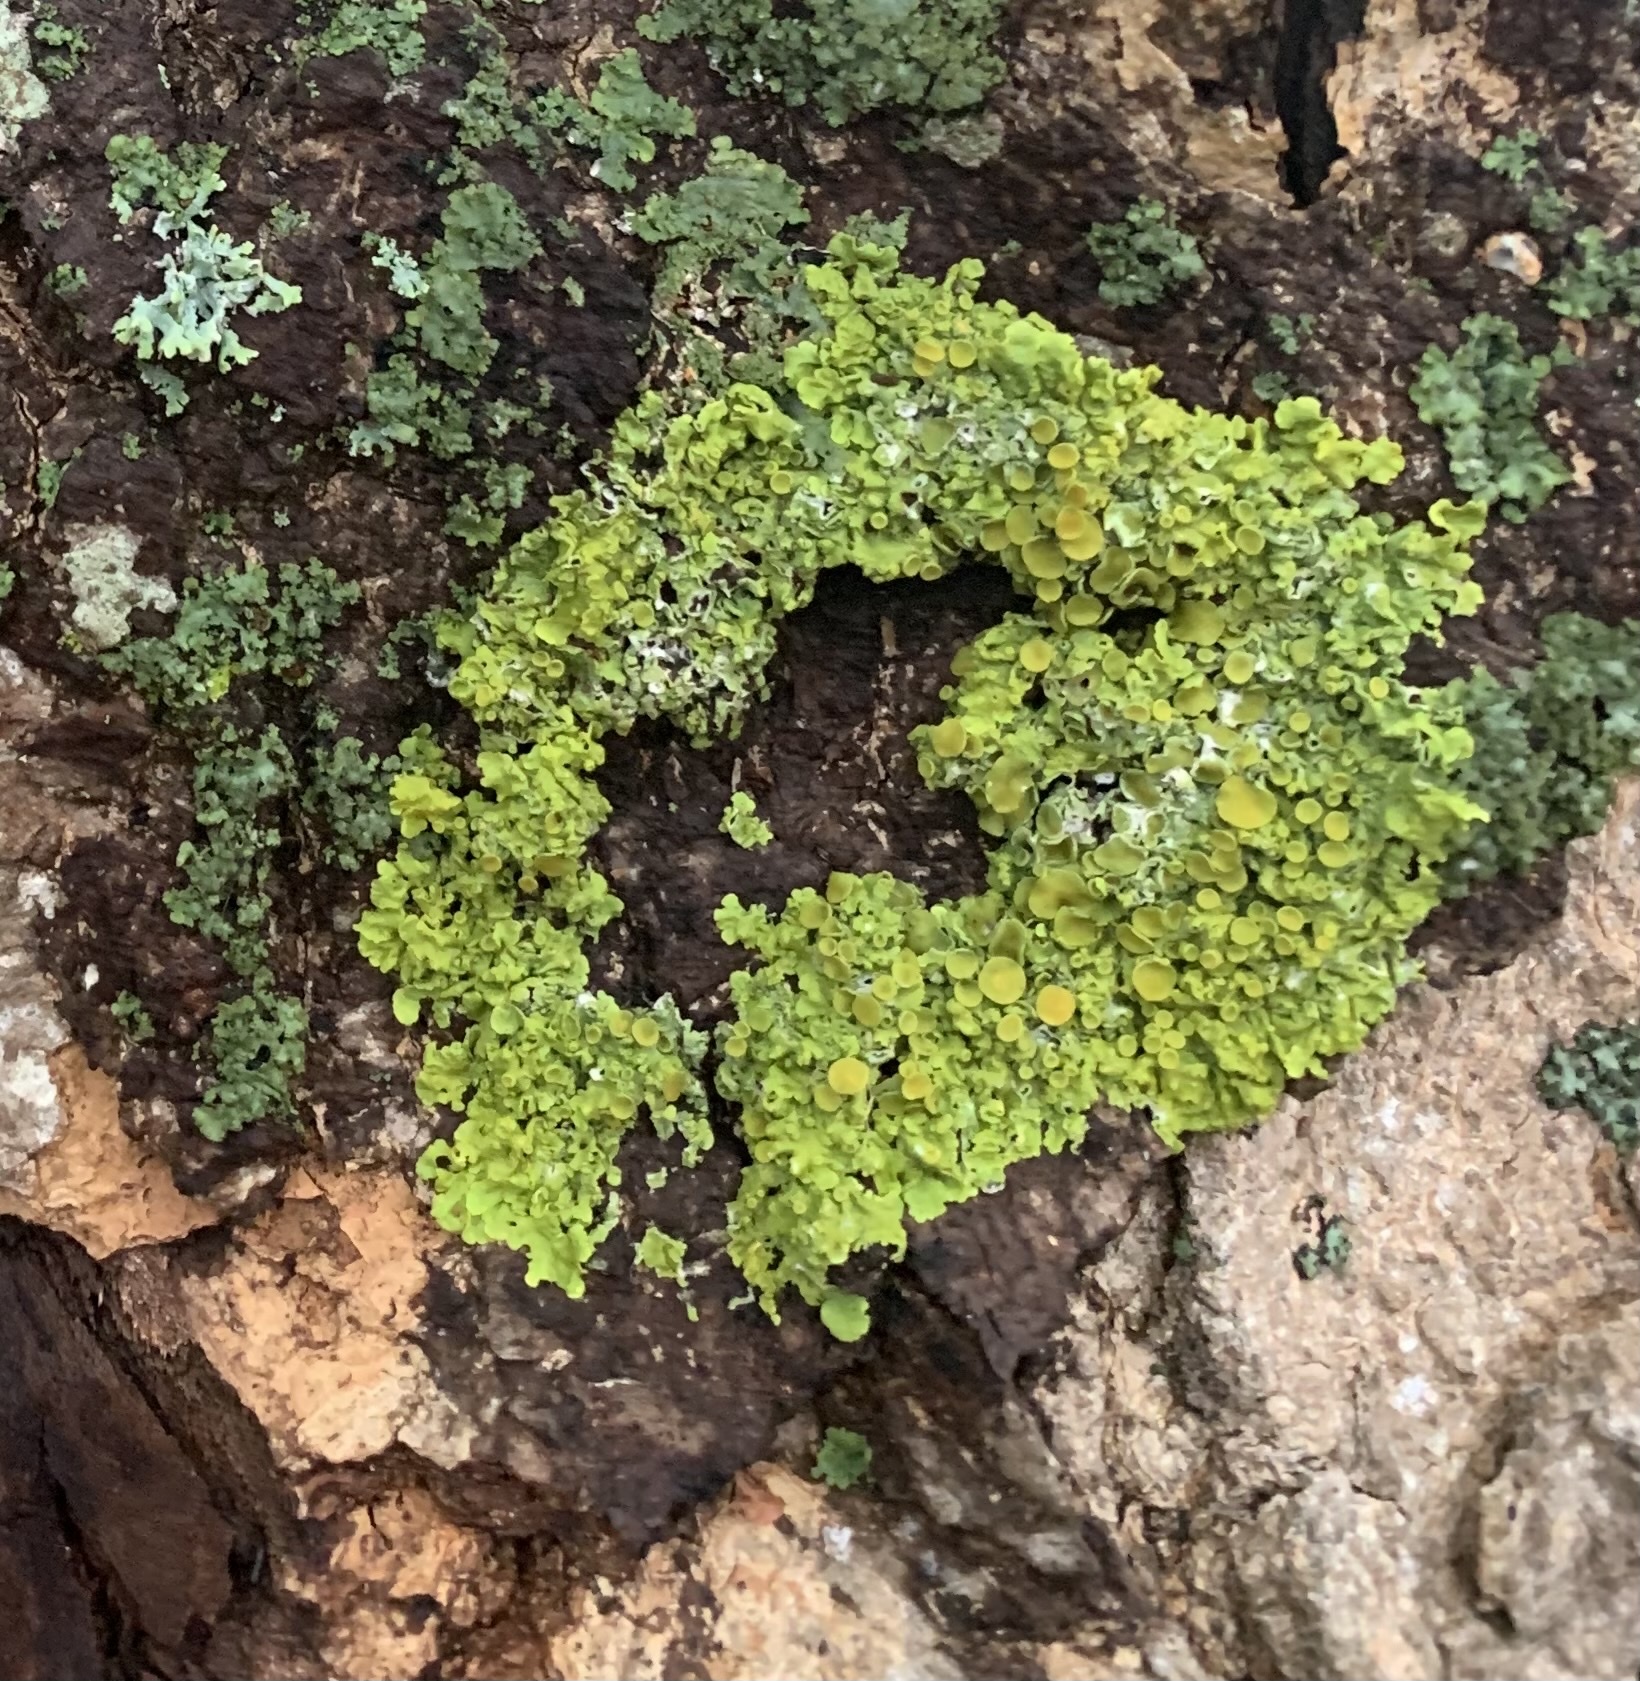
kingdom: Fungi
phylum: Ascomycota
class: Lecanoromycetes
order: Teloschistales
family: Teloschistaceae
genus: Xanthoria
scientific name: Xanthoria parietina
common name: Common orange lichen
